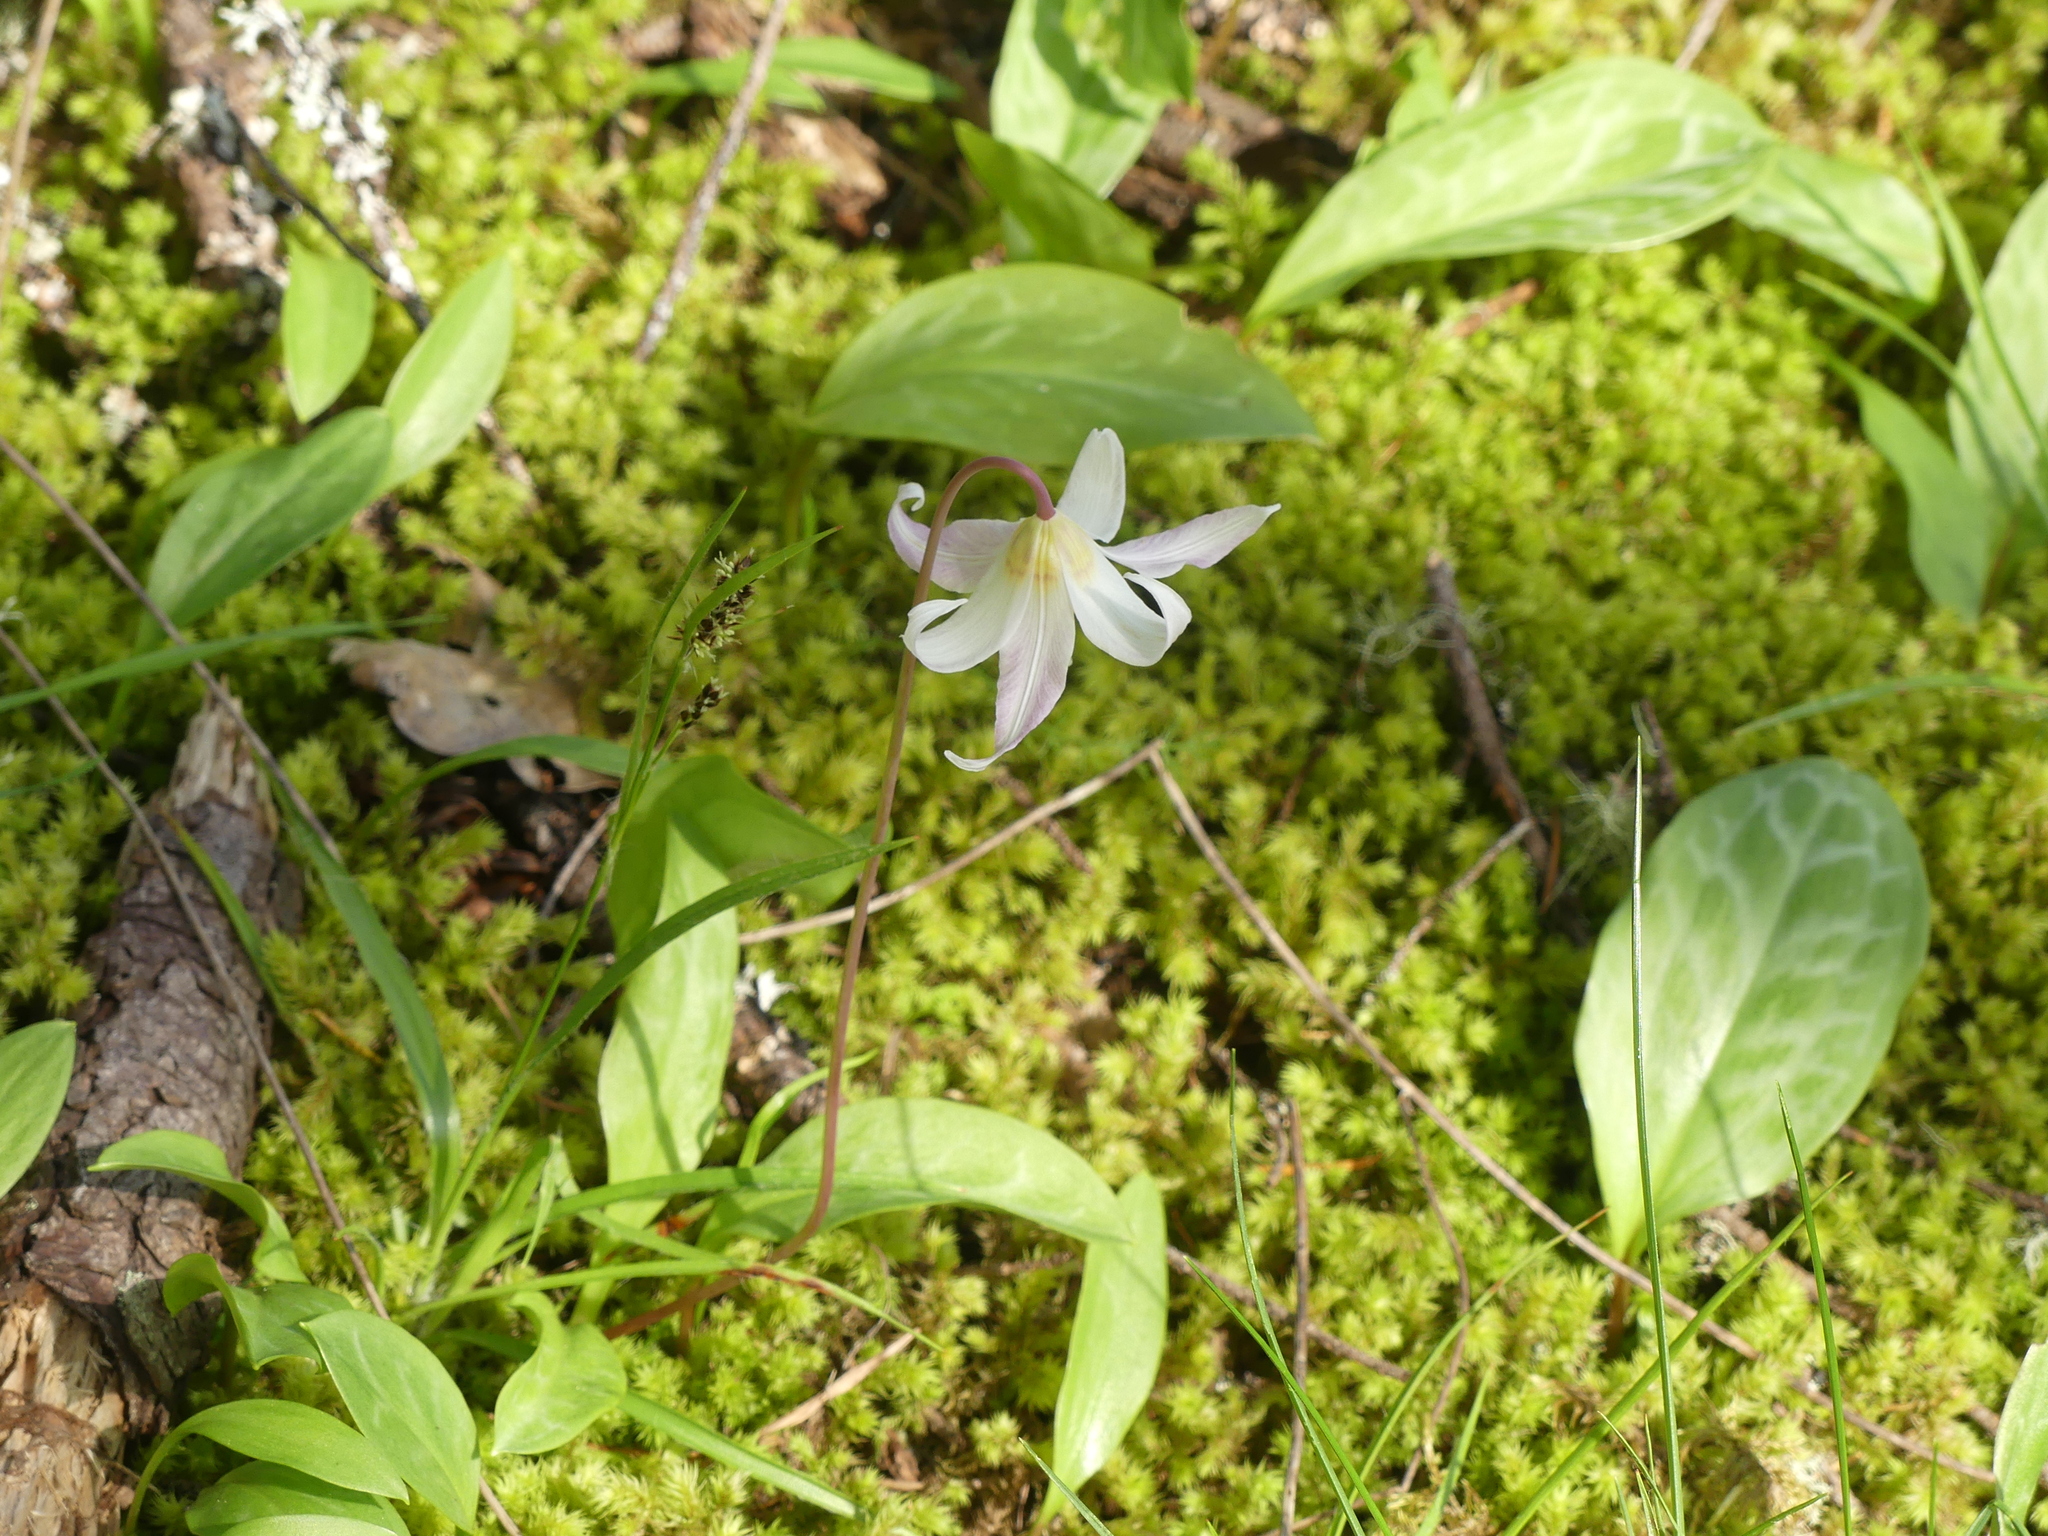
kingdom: Plantae
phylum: Tracheophyta
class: Liliopsida
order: Liliales
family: Liliaceae
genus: Erythronium
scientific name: Erythronium oregonum
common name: Giant adder's-tongue
